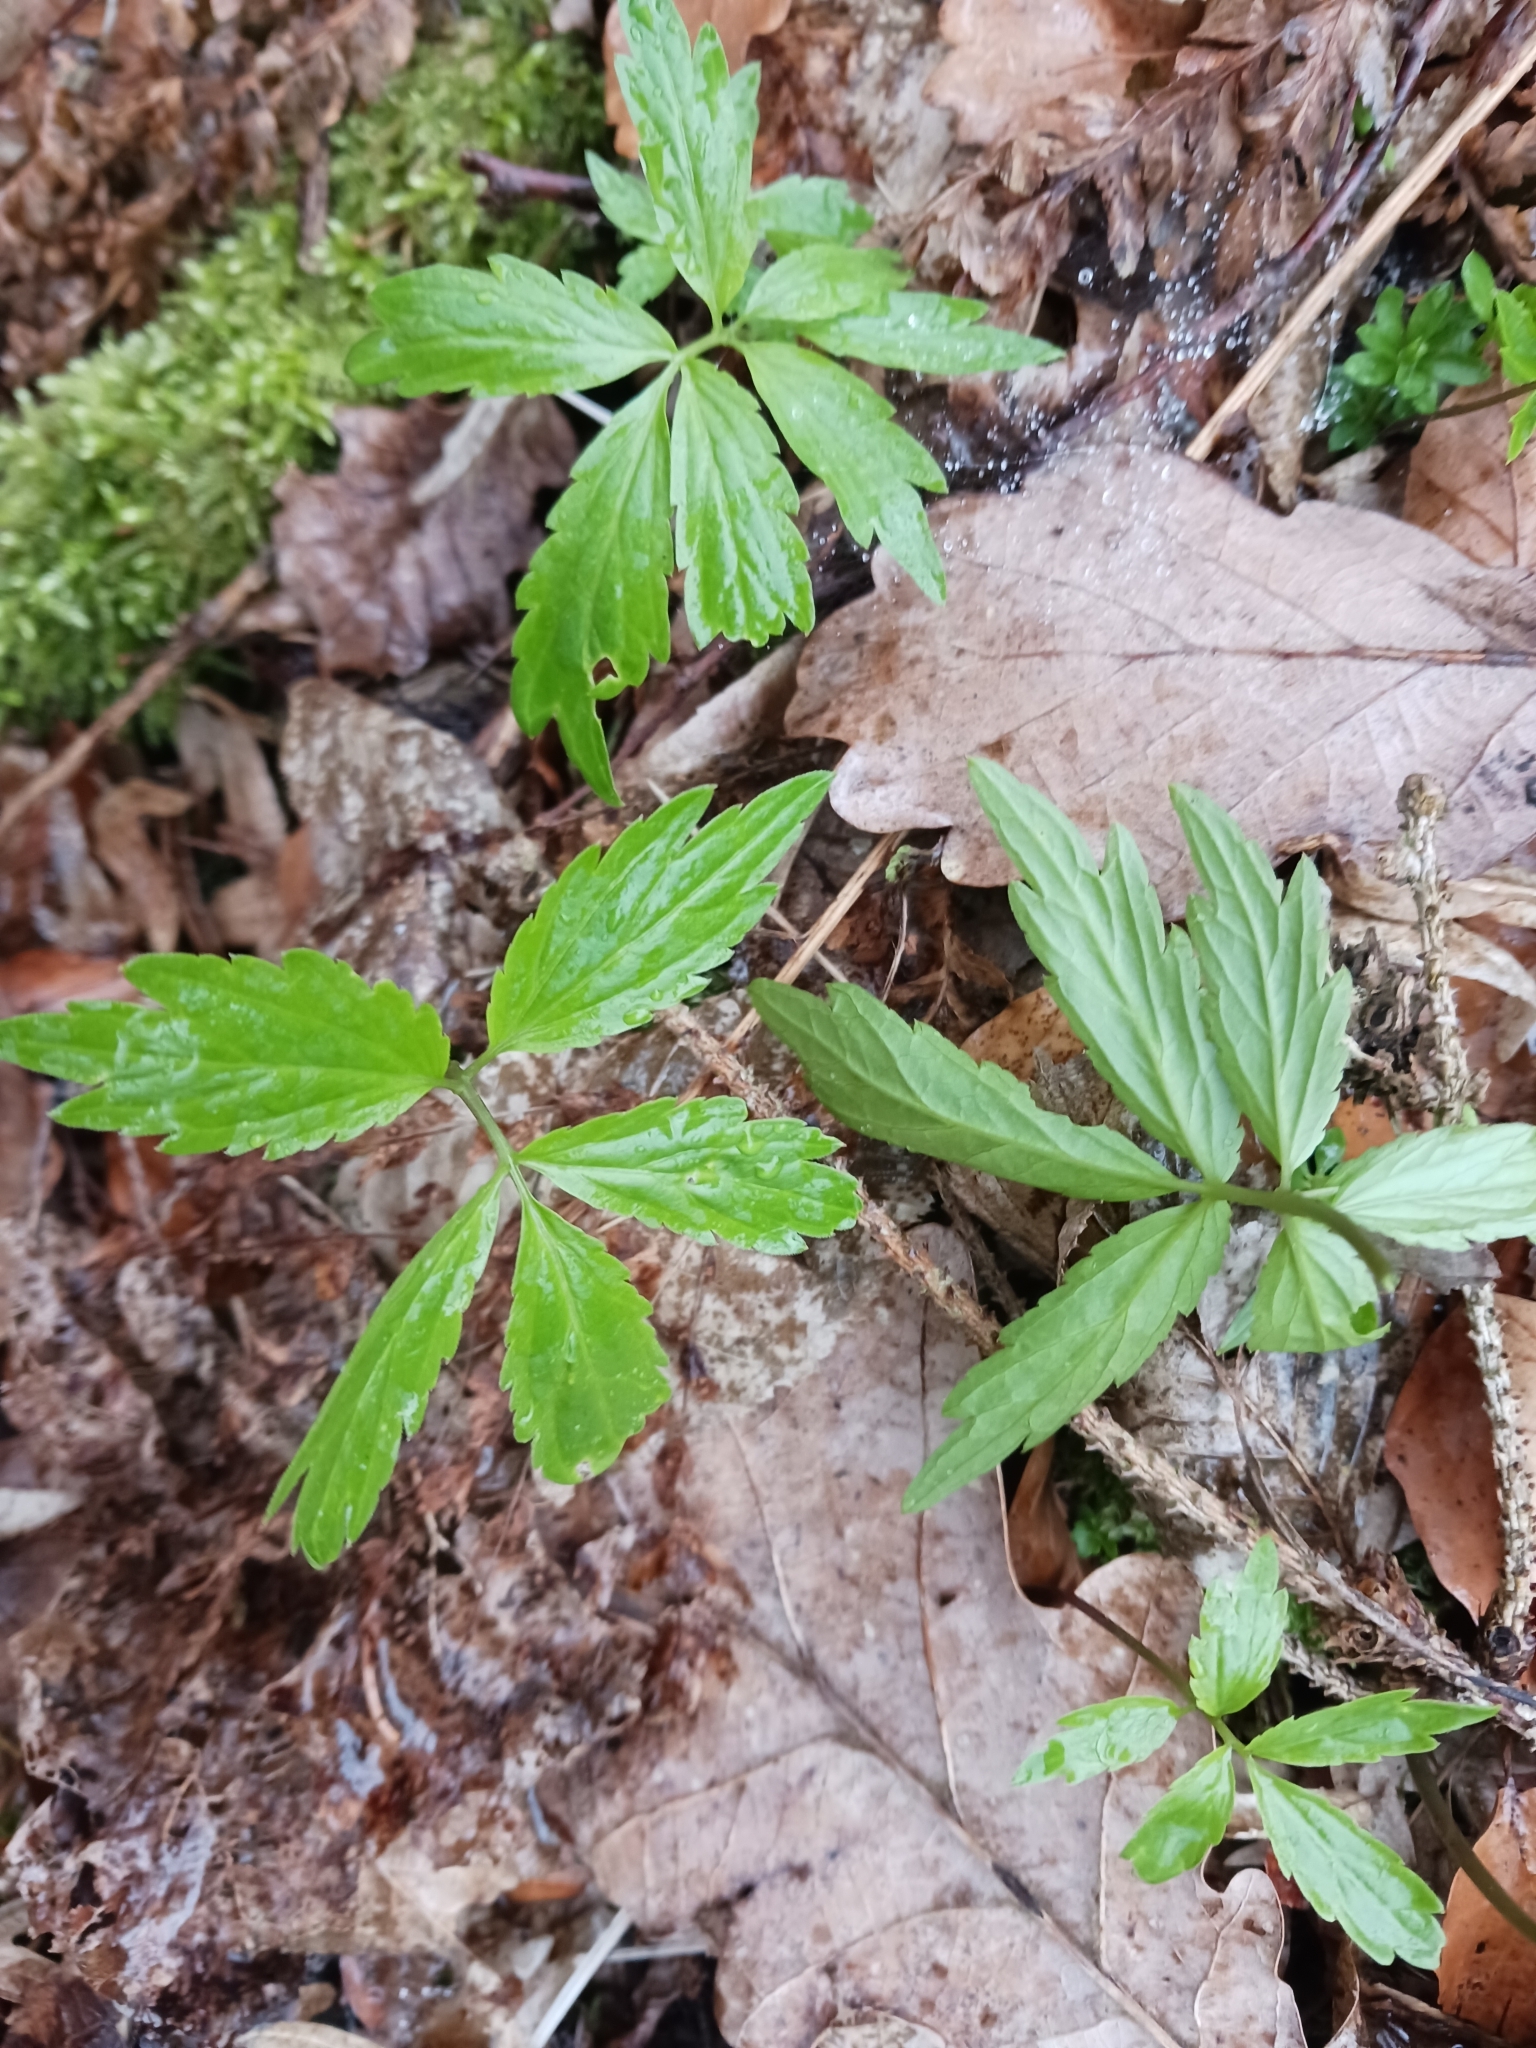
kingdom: Plantae
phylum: Tracheophyta
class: Magnoliopsida
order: Brassicales
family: Brassicaceae
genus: Cardamine
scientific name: Cardamine bulbifera
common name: Coralroot bittercress
